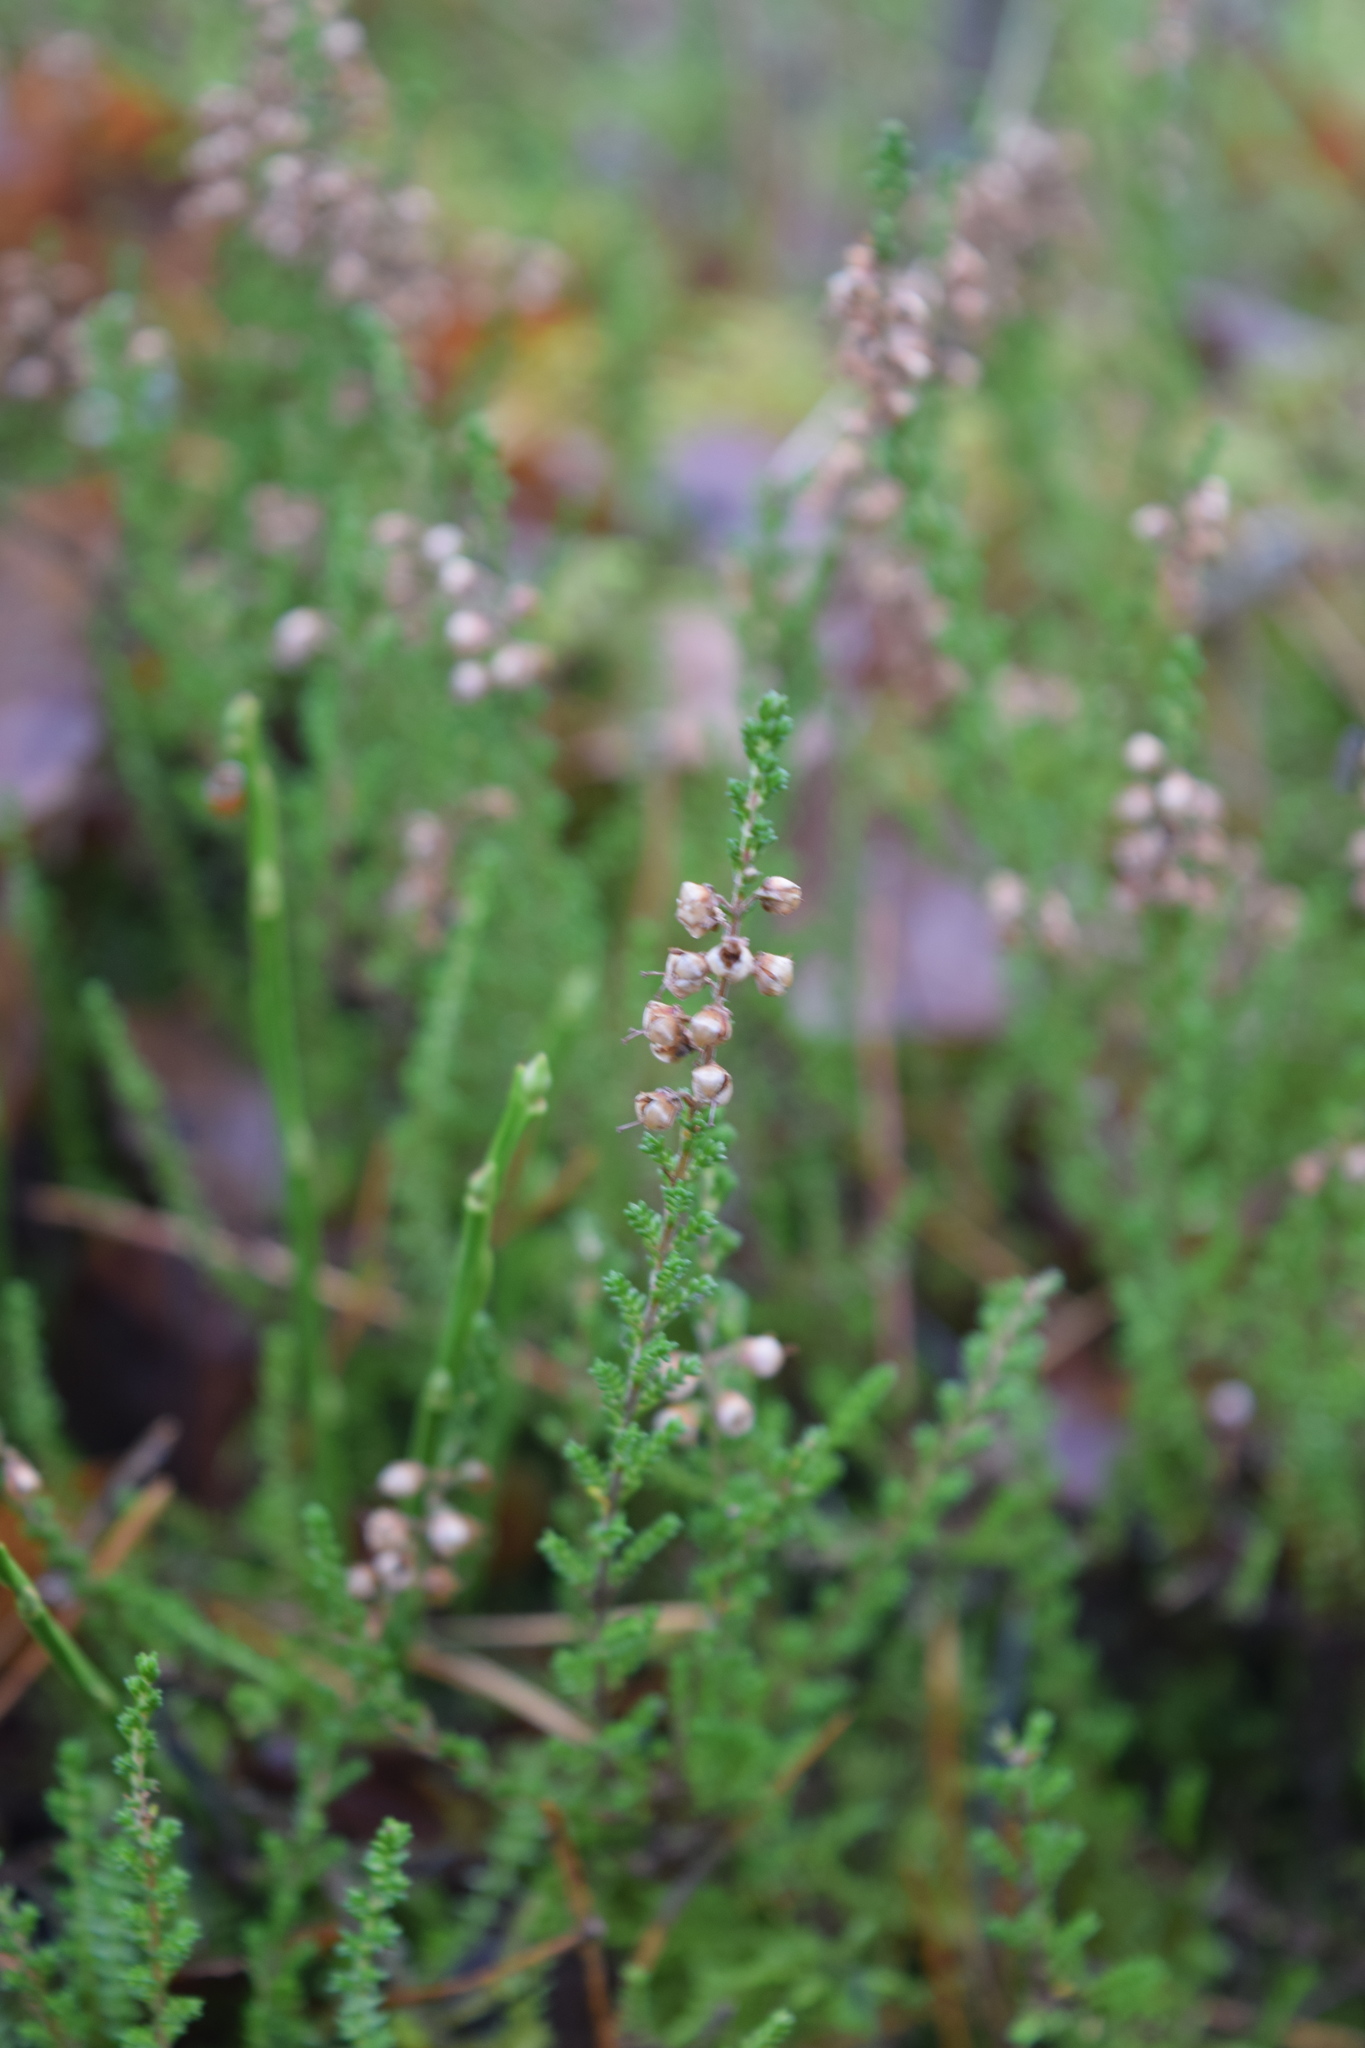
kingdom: Plantae
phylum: Tracheophyta
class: Magnoliopsida
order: Ericales
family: Ericaceae
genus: Calluna
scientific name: Calluna vulgaris
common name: Heather
